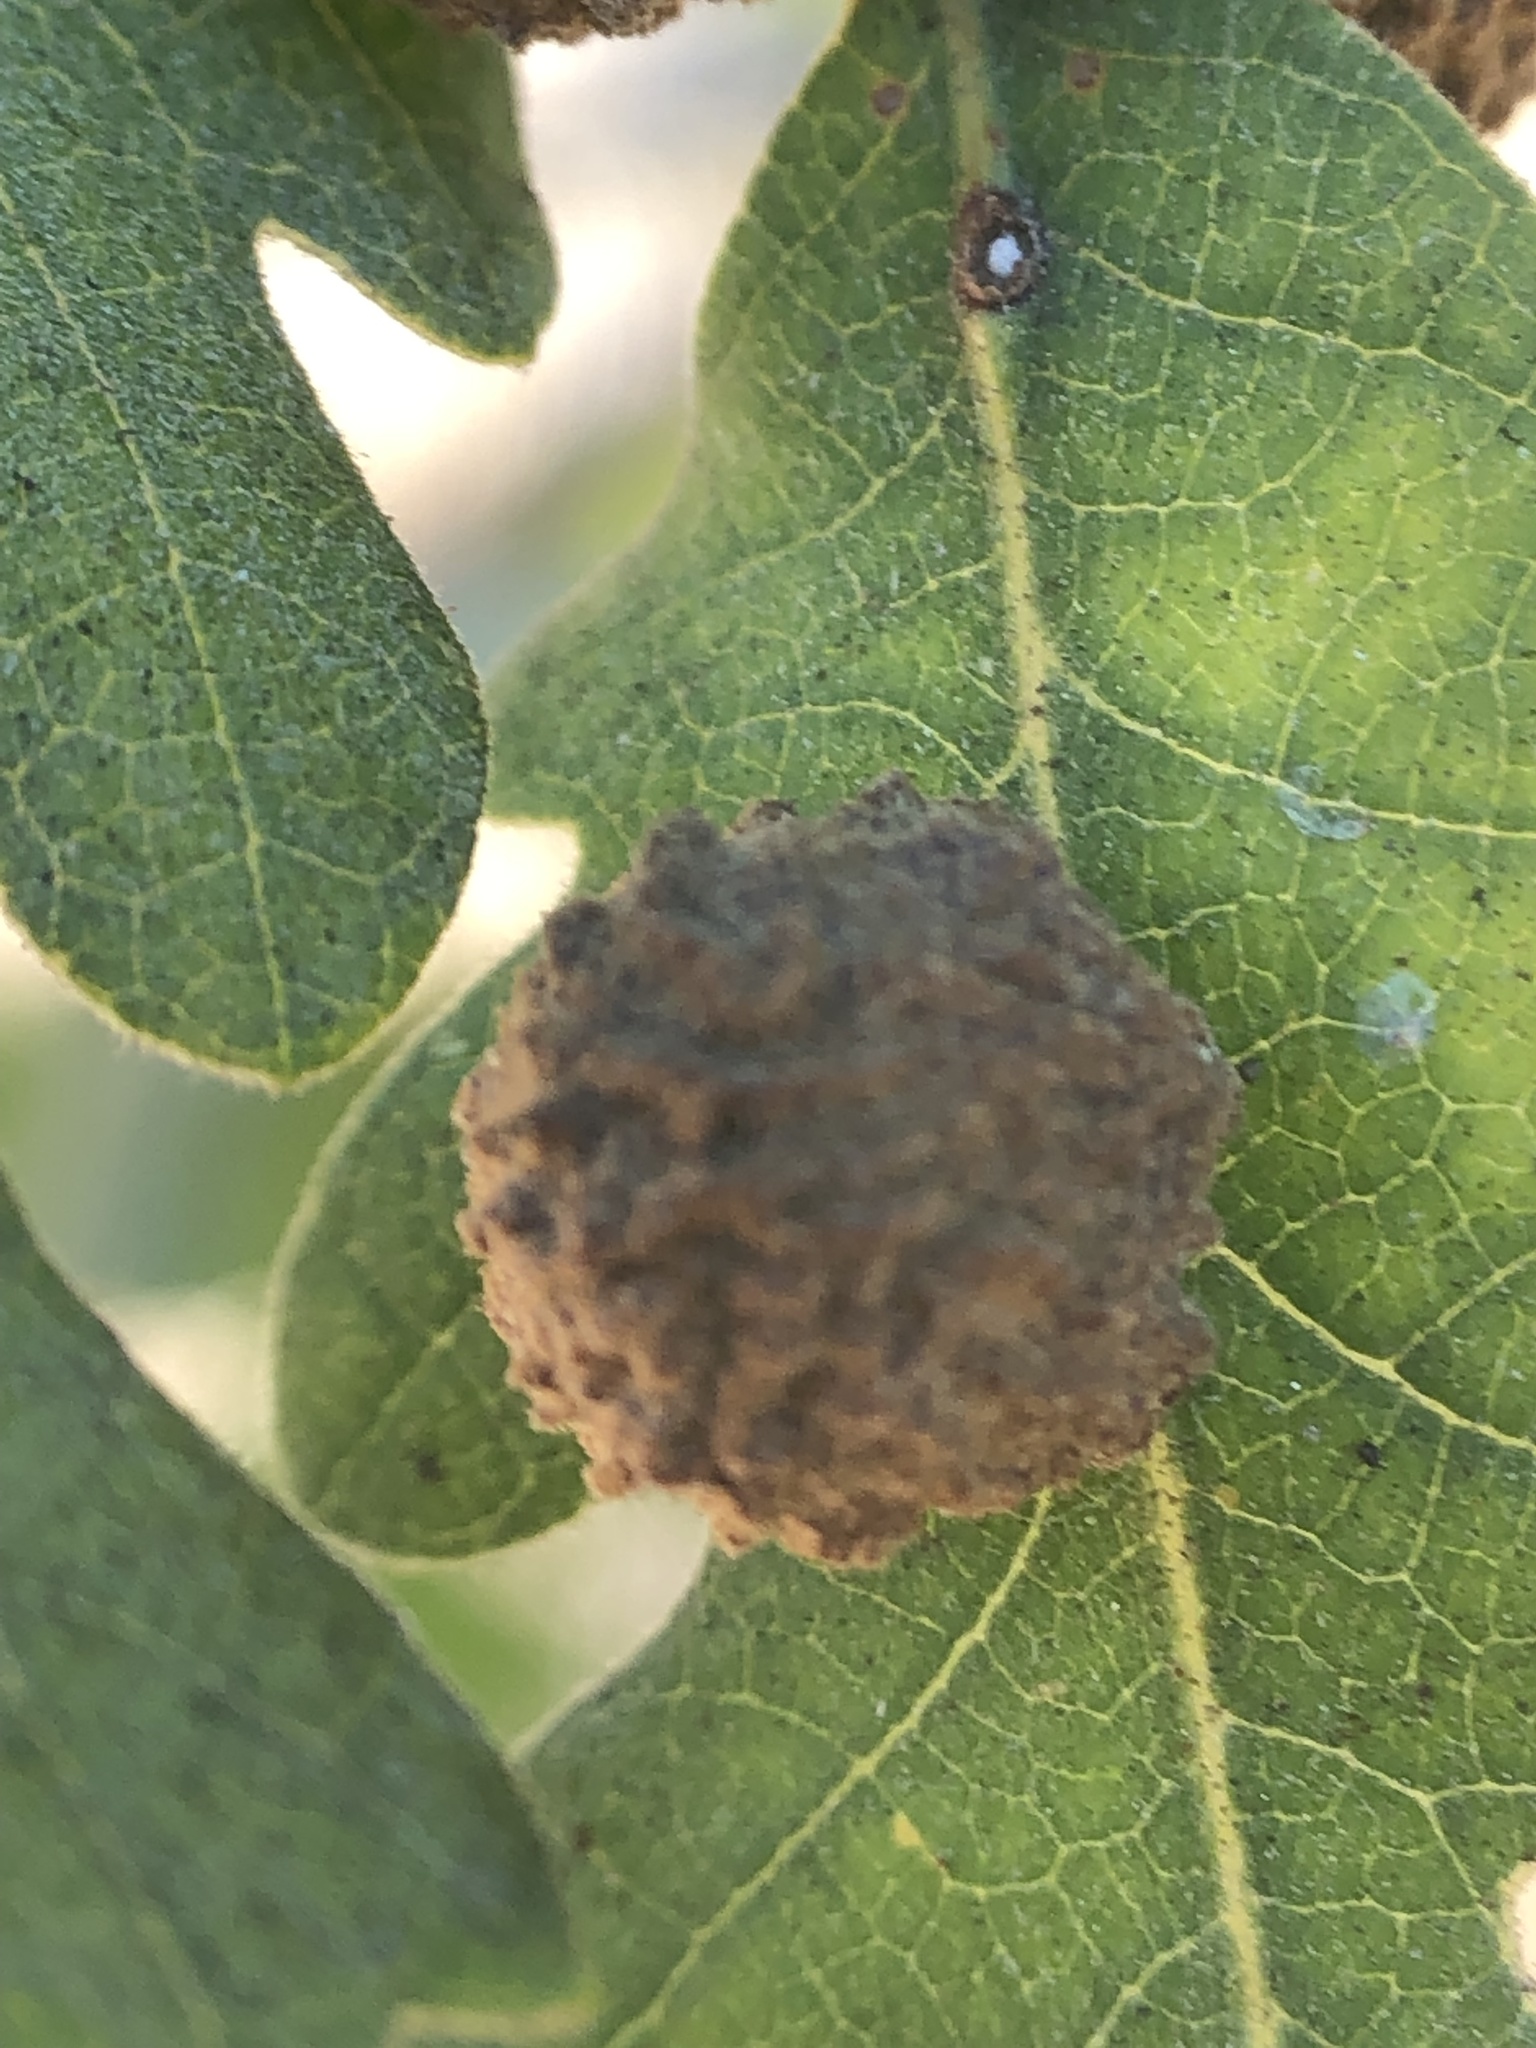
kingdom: Animalia
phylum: Arthropoda
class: Insecta
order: Hymenoptera
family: Cynipidae
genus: Cynips
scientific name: Cynips conspicua
